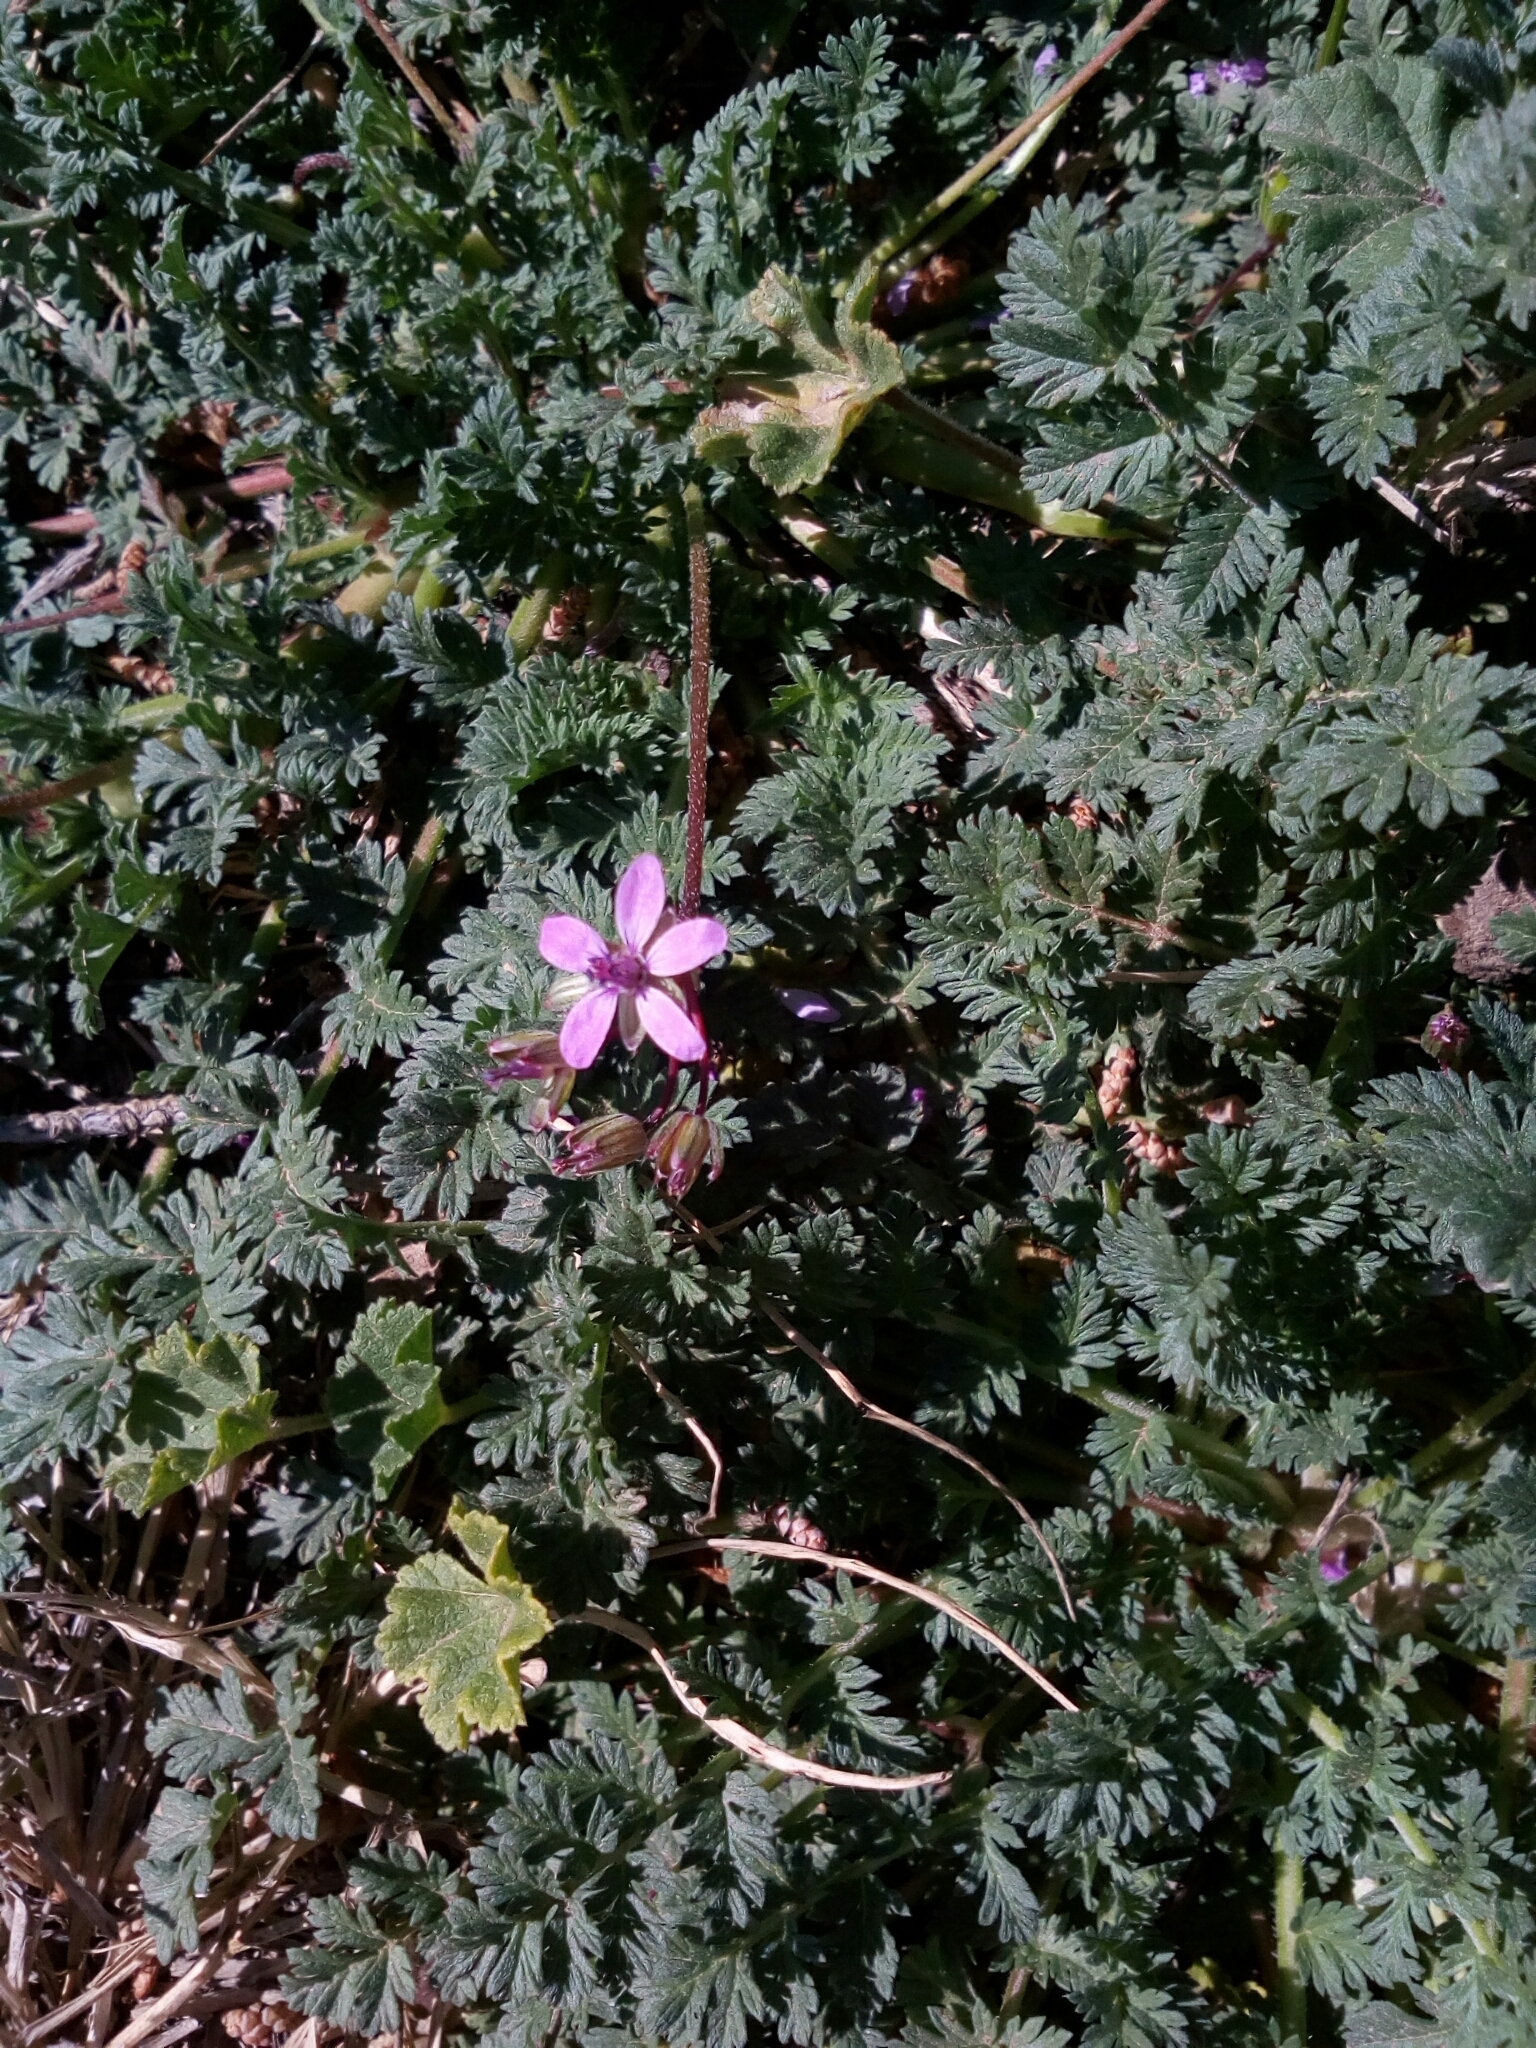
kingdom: Plantae
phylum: Tracheophyta
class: Magnoliopsida
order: Geraniales
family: Geraniaceae
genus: Erodium
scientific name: Erodium cicutarium
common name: Common stork's-bill
